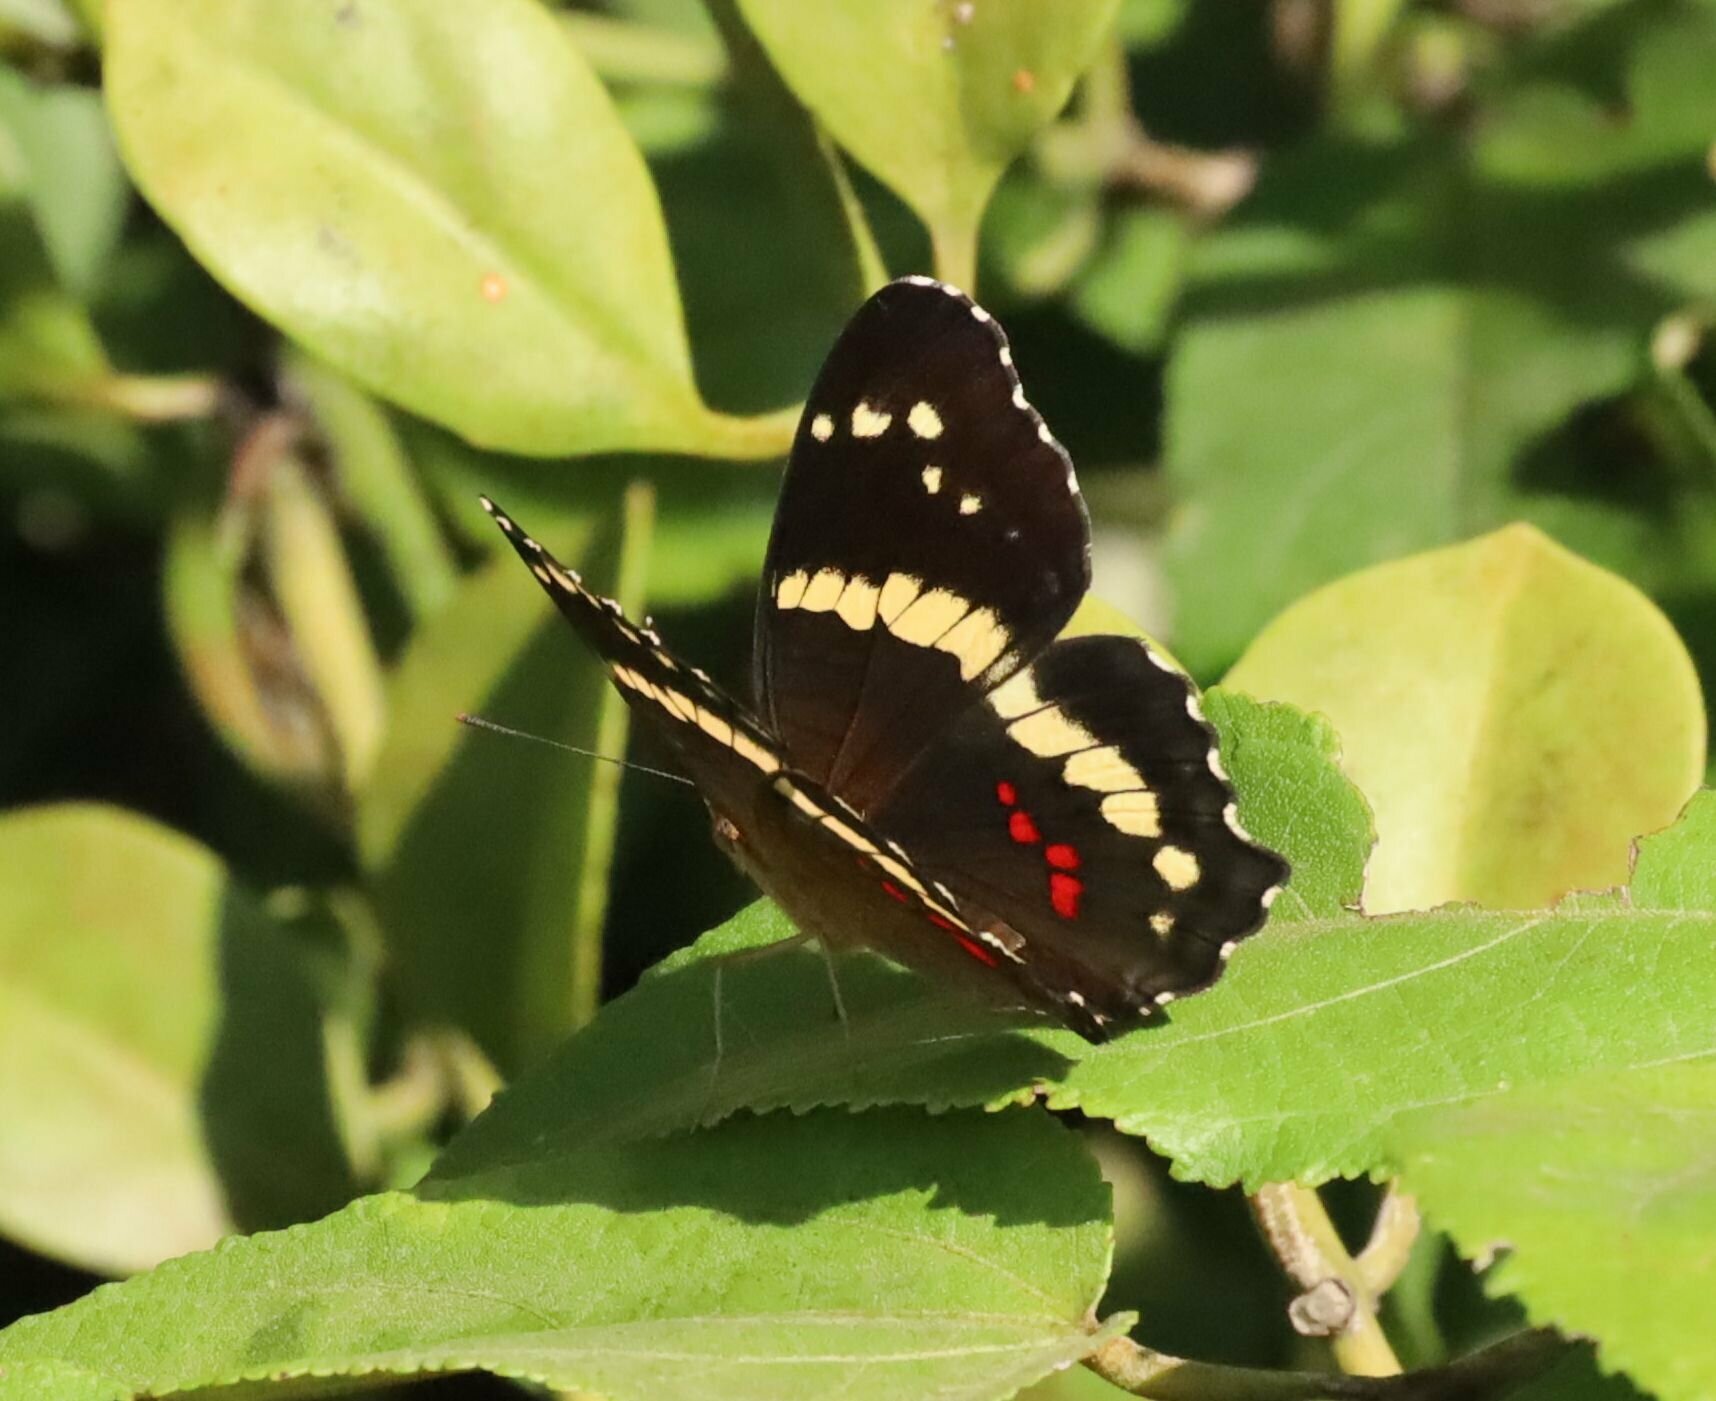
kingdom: Animalia
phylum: Arthropoda
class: Insecta
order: Lepidoptera
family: Nymphalidae
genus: Anartia
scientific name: Anartia fatima
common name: Banded peacock
